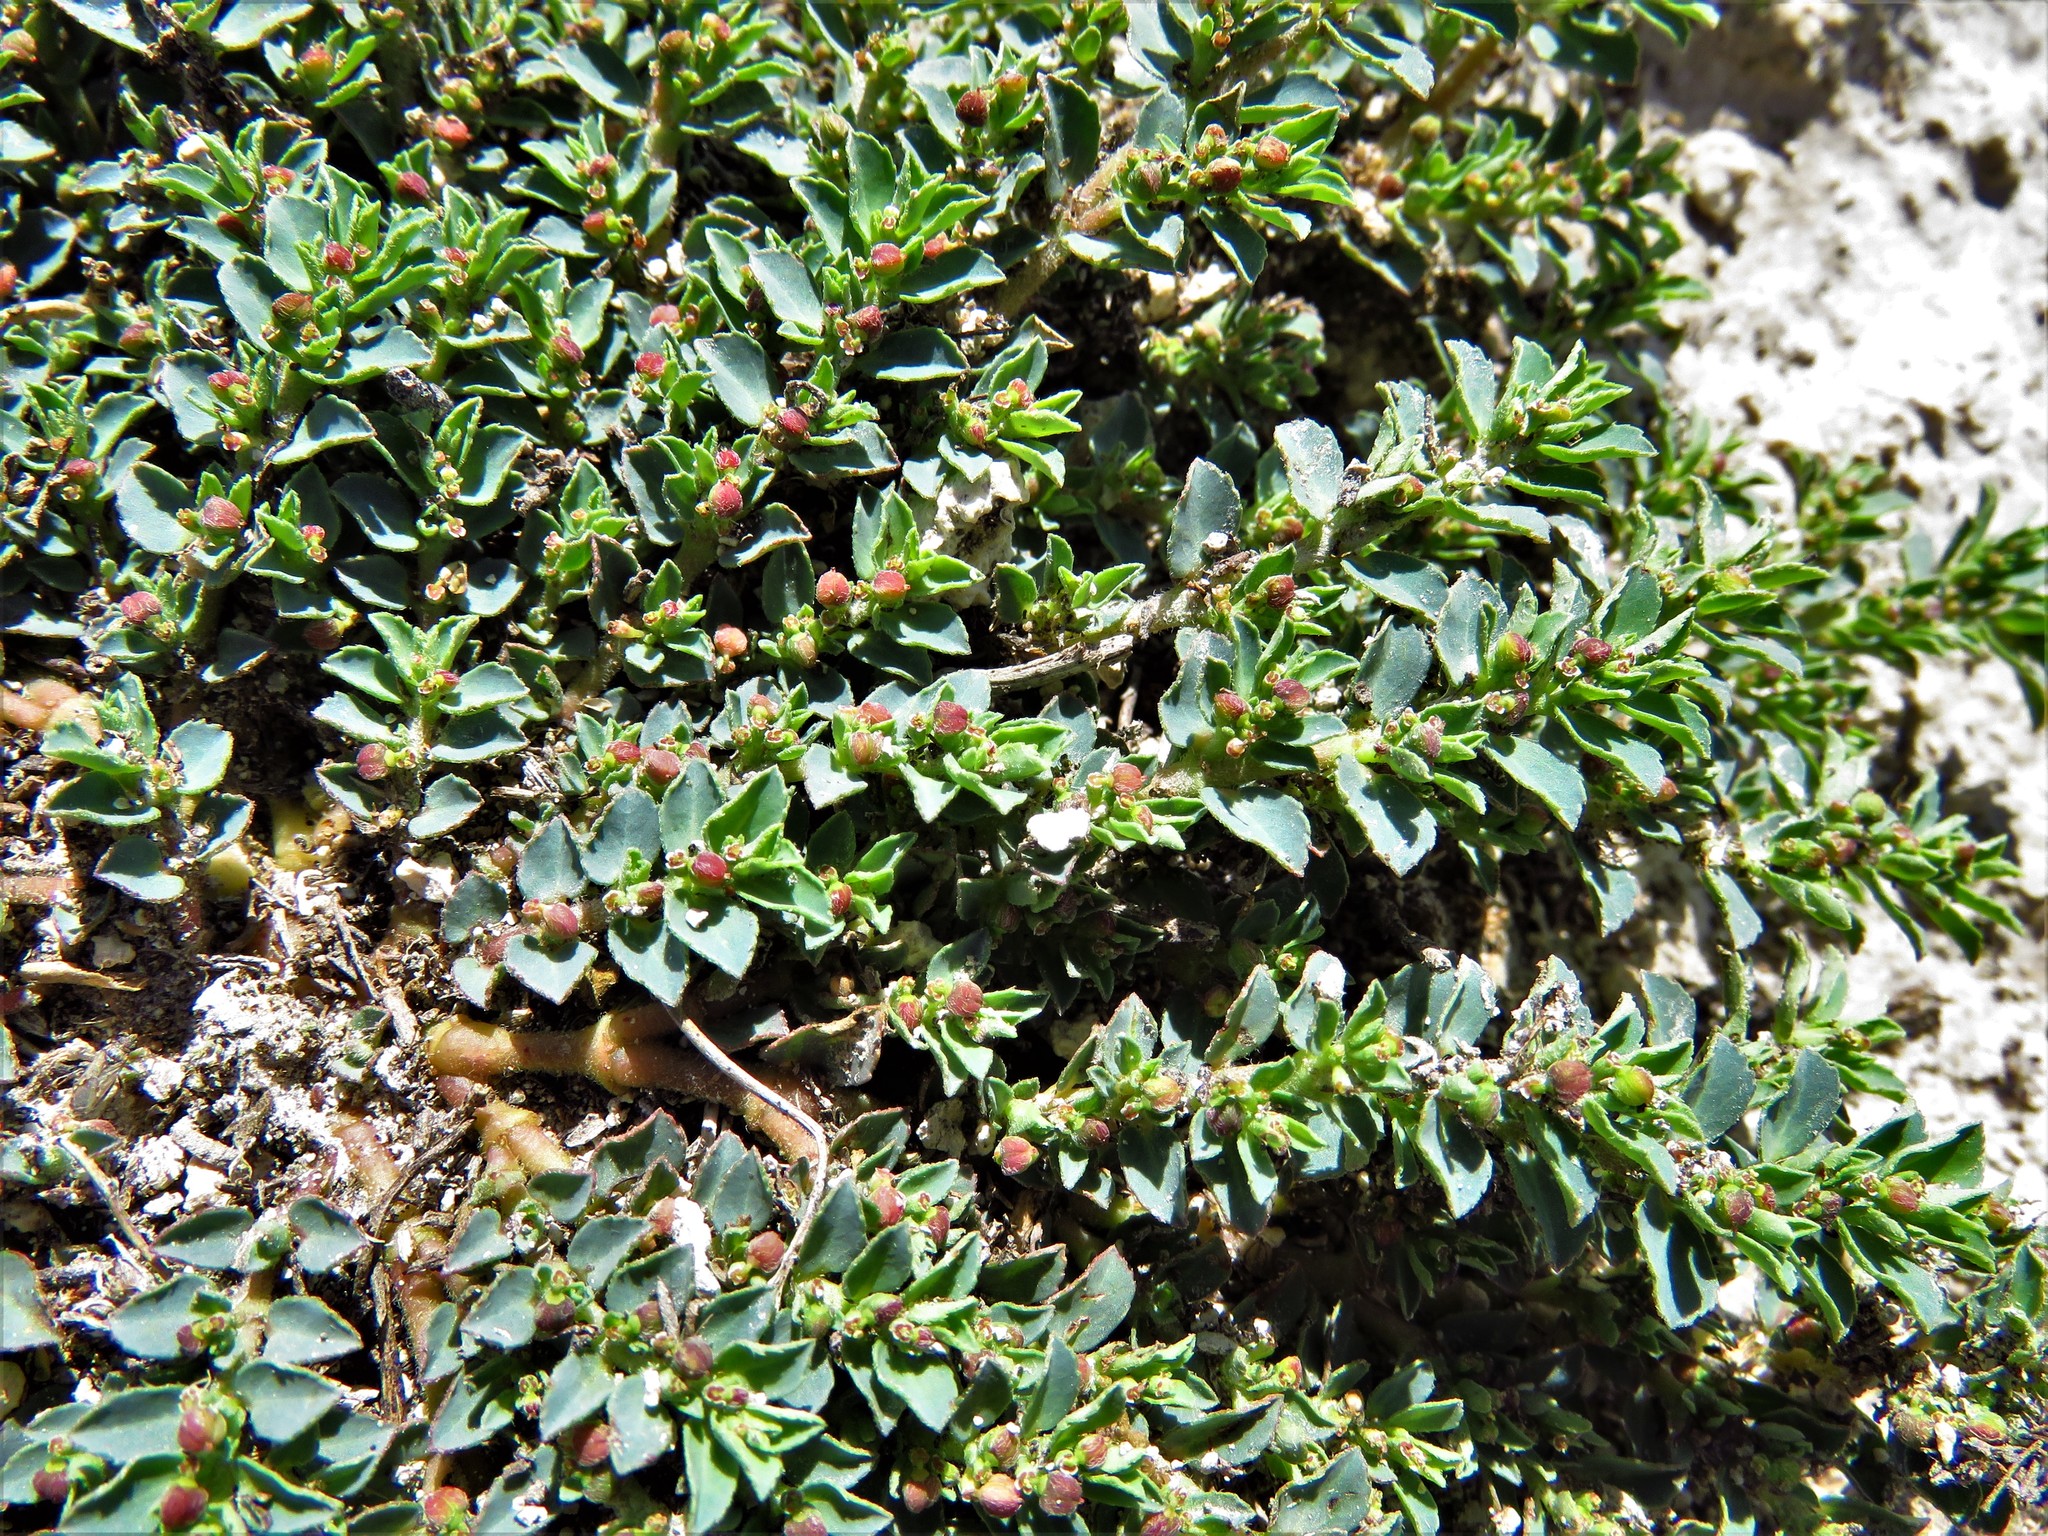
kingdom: Plantae
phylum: Tracheophyta
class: Magnoliopsida
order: Malpighiales
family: Euphorbiaceae
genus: Euphorbia
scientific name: Euphorbia stictospora
